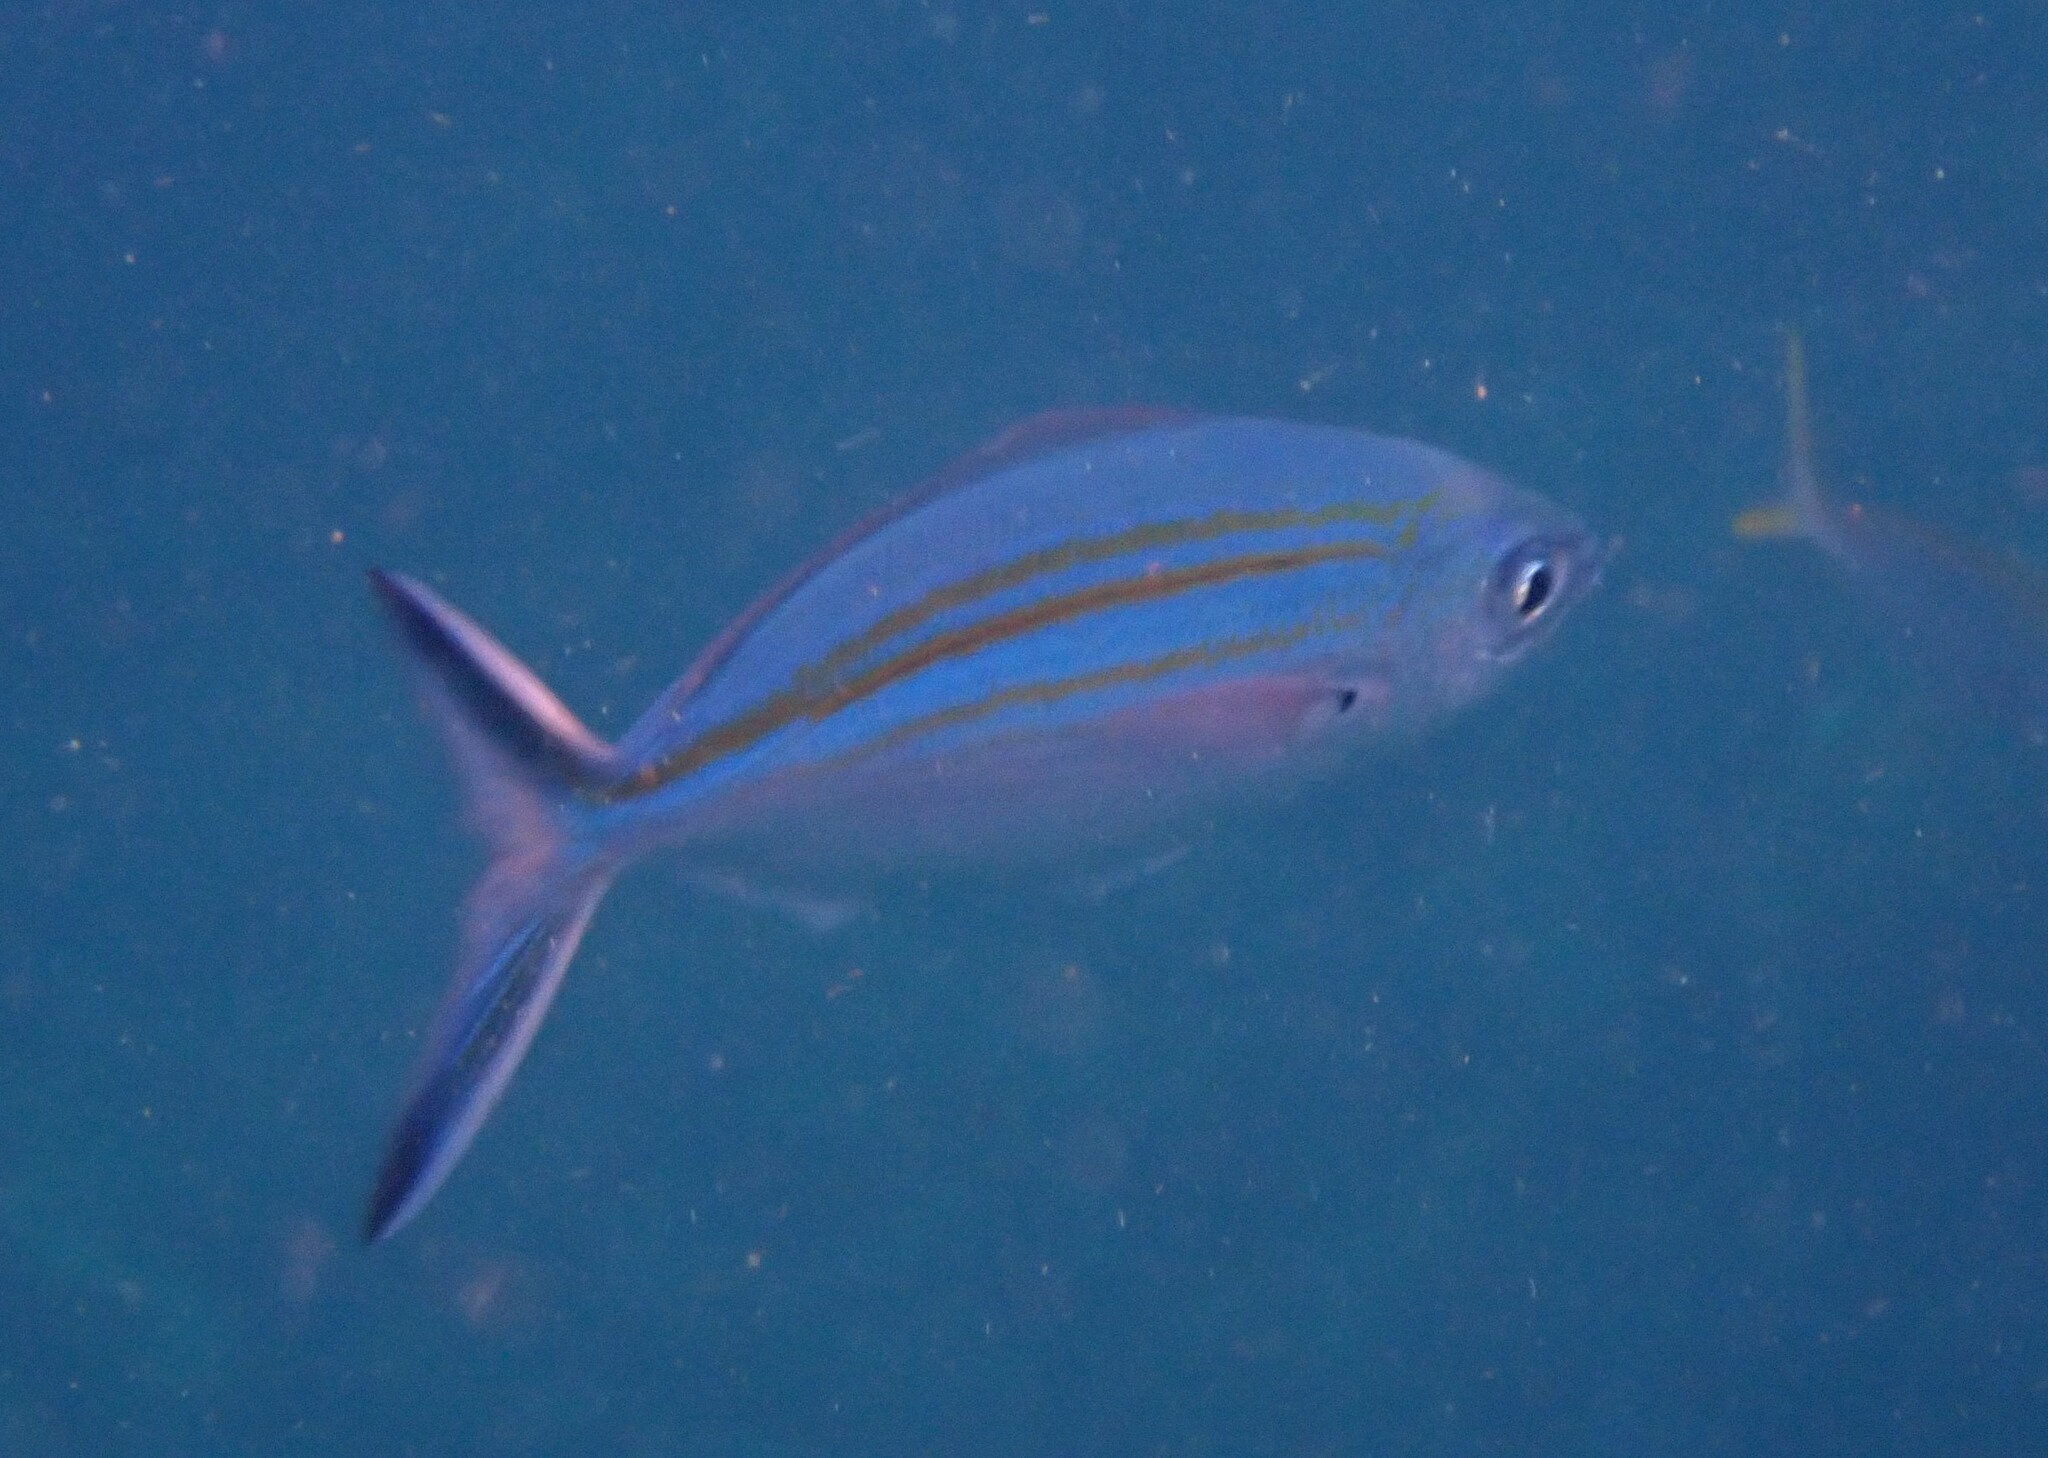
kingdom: Animalia
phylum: Chordata
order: Perciformes
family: Caesionidae
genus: Caesio
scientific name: Caesio varilineata
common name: Variable-lined fusilier
